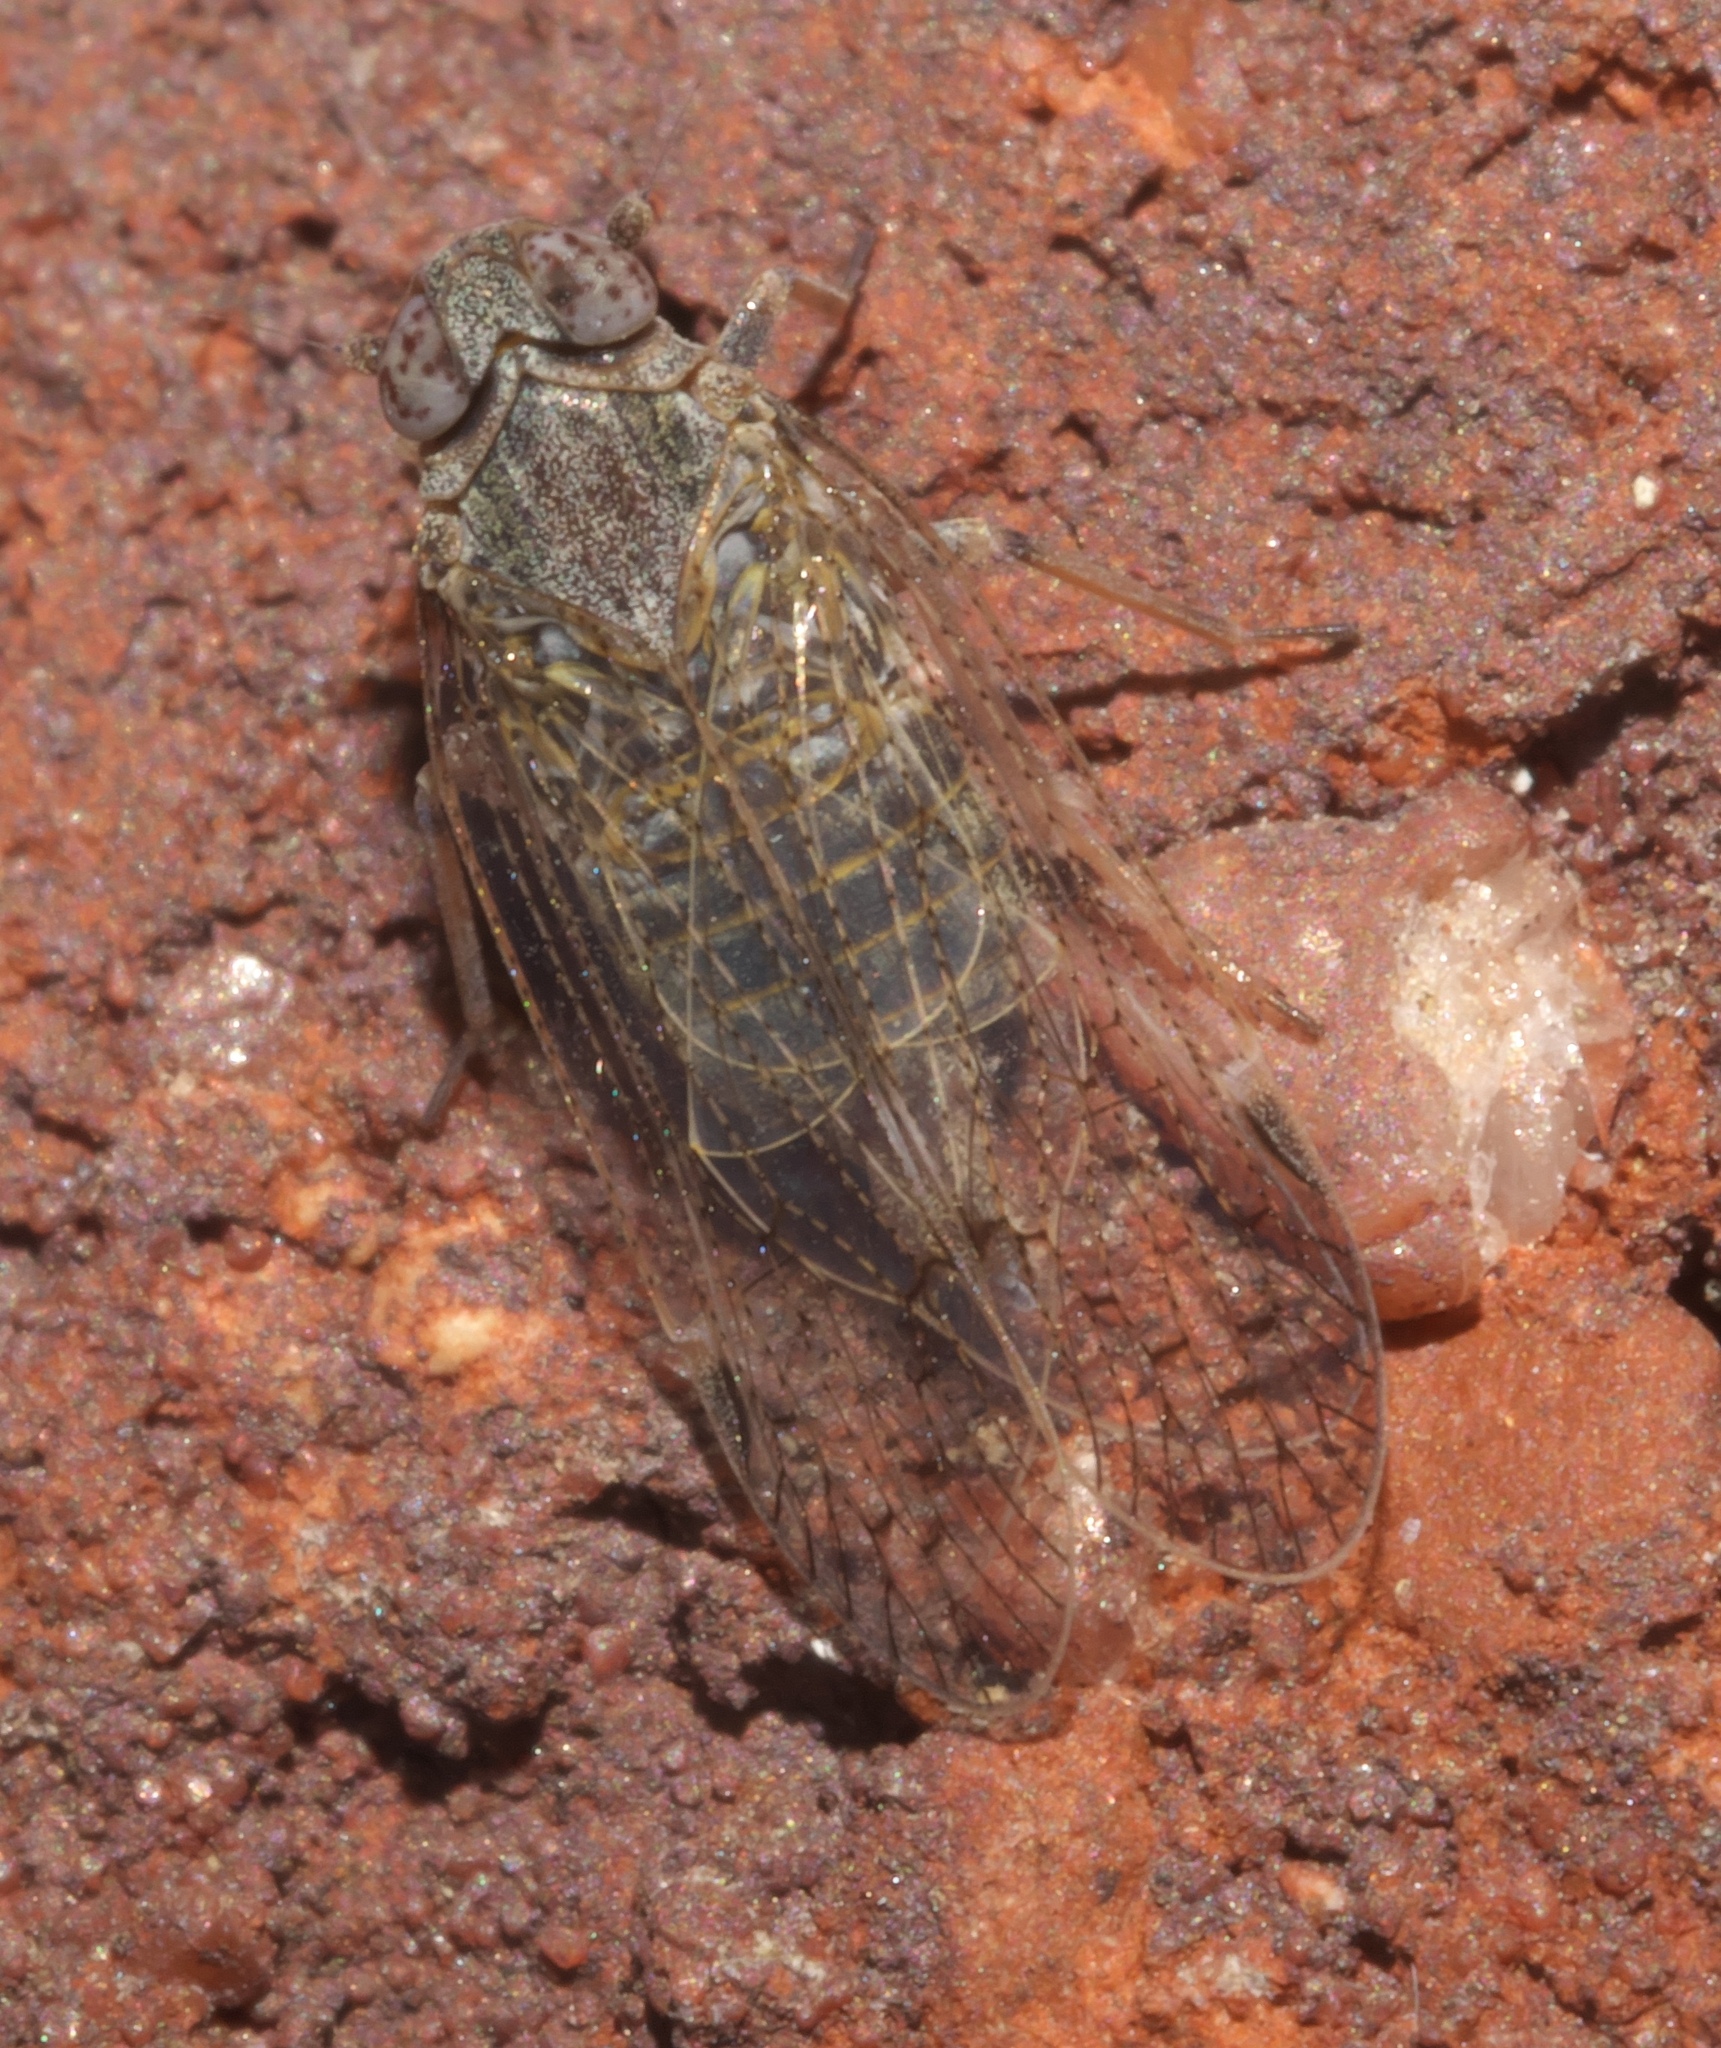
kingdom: Animalia
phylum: Arthropoda
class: Insecta
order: Hemiptera
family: Cixiidae
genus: Melanoliarus
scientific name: Melanoliarus aridus
